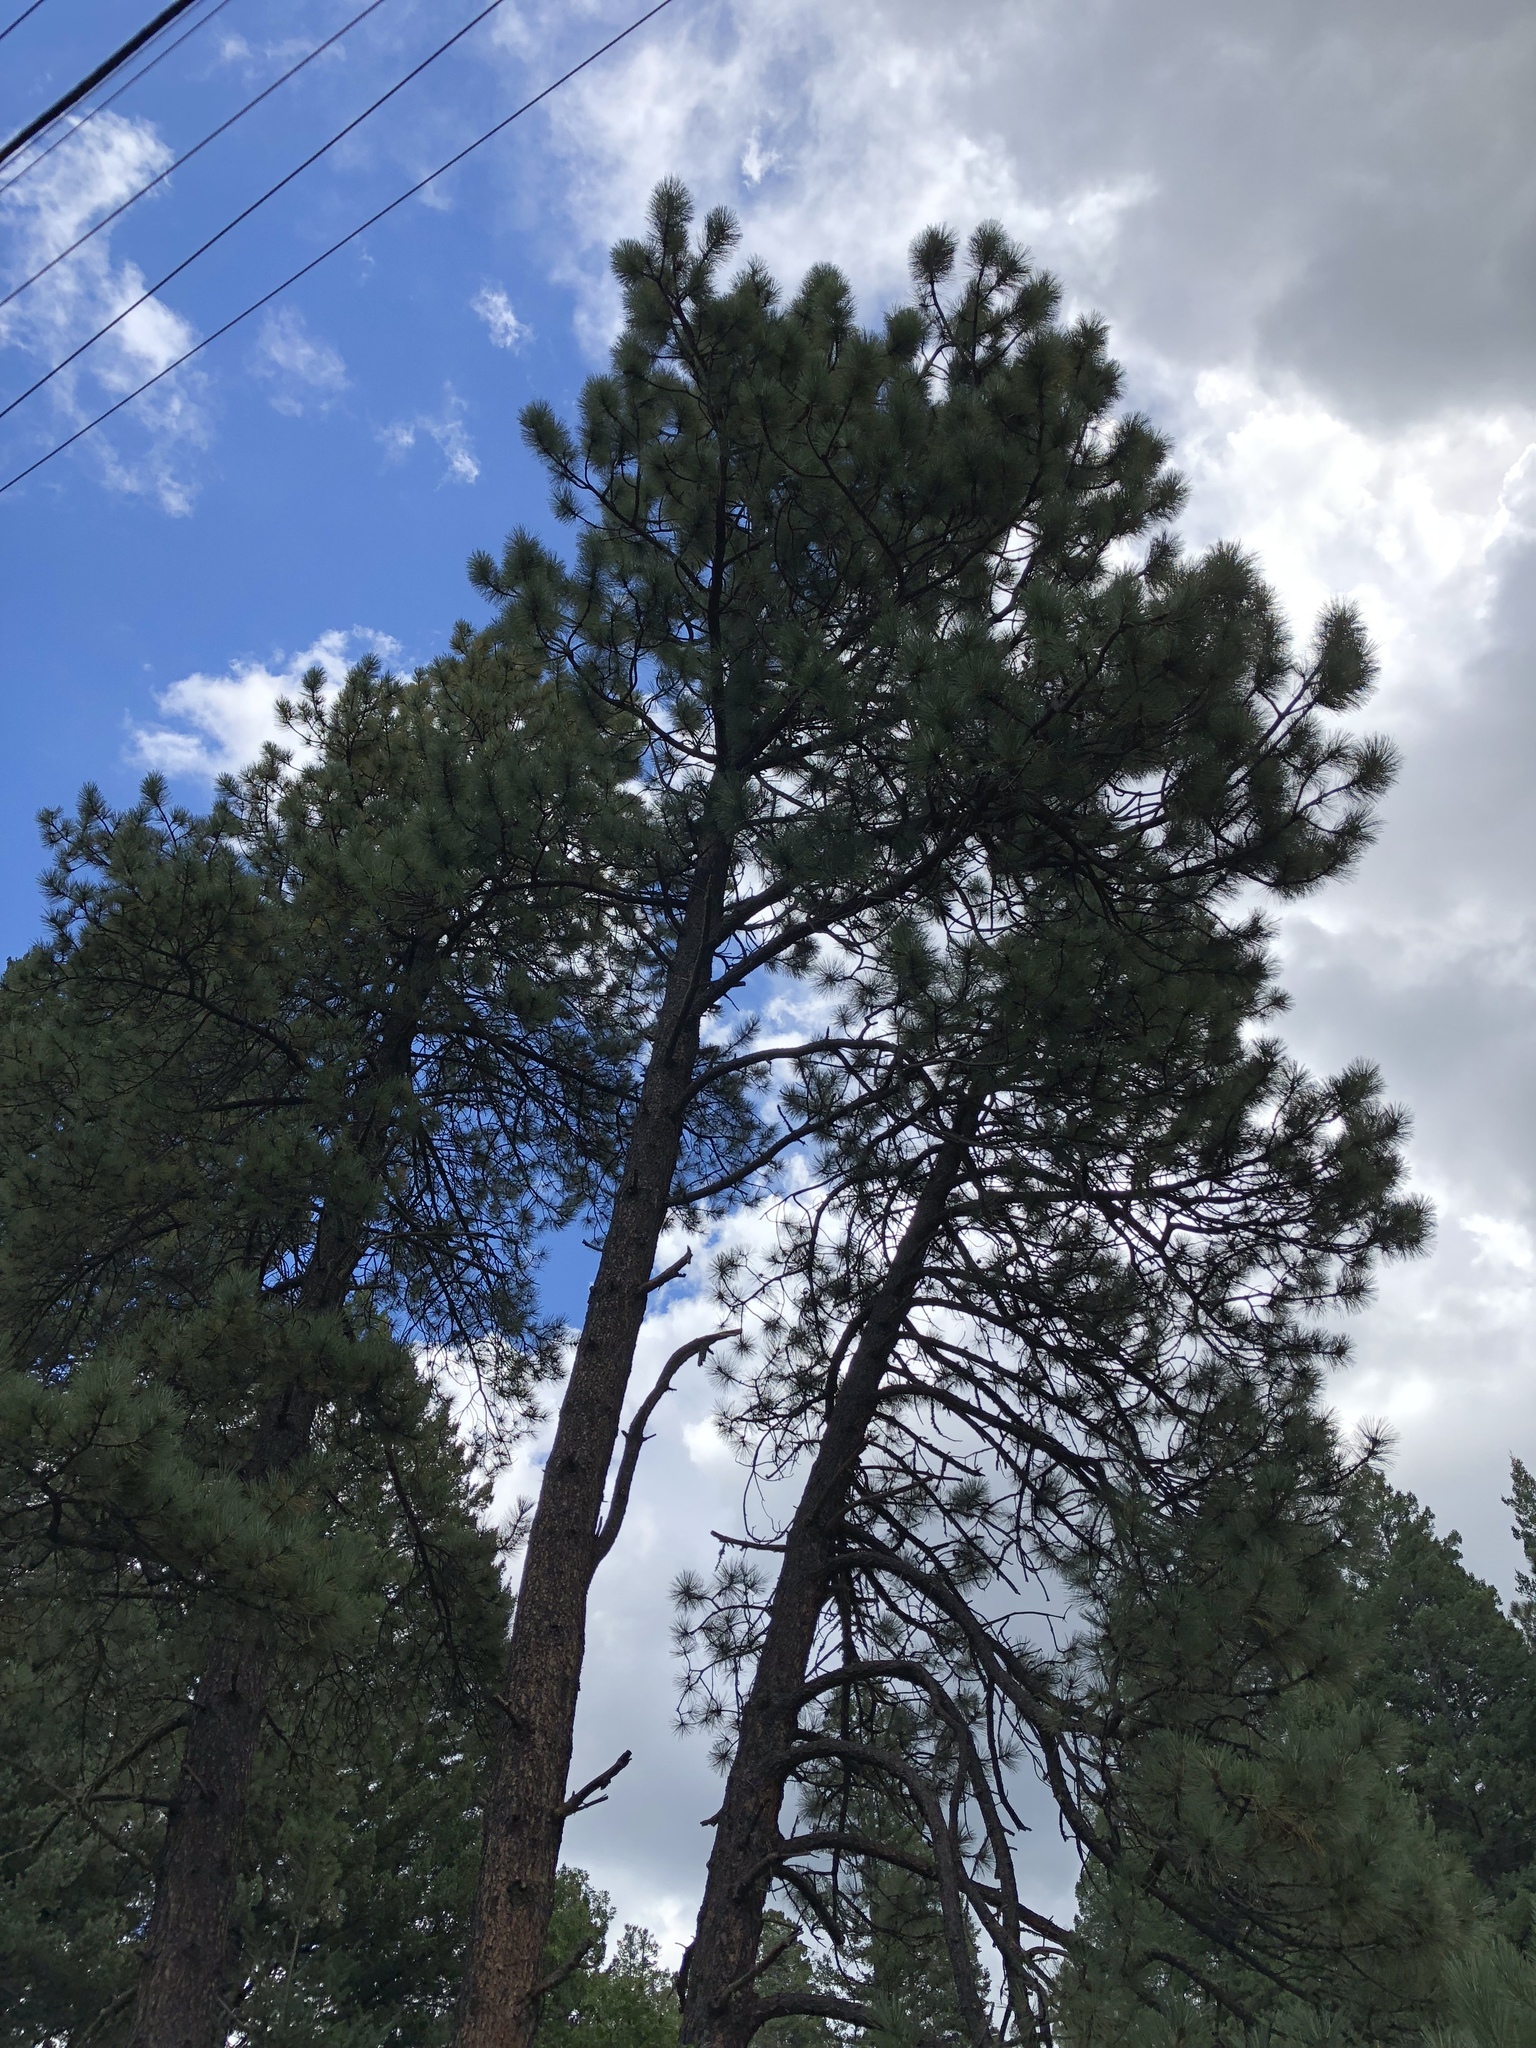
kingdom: Plantae
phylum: Tracheophyta
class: Pinopsida
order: Pinales
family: Pinaceae
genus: Pinus
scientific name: Pinus ponderosa
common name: Western yellow-pine
